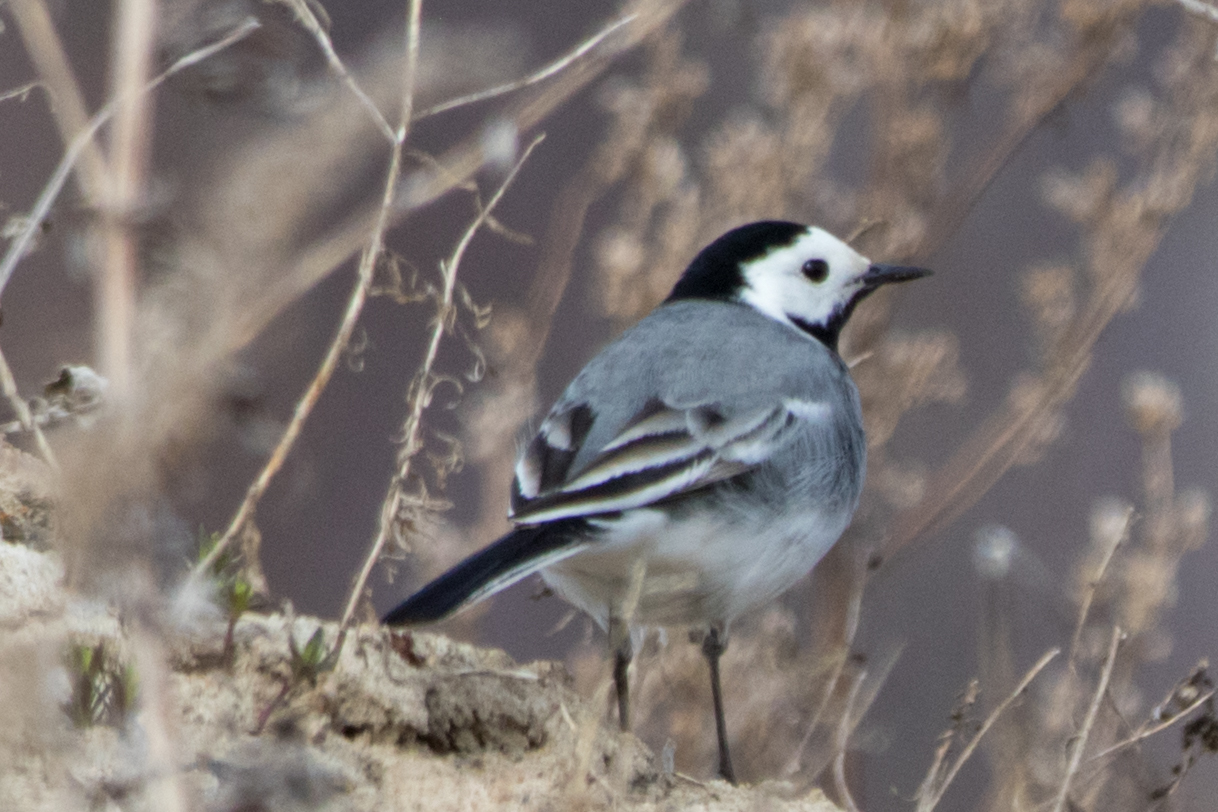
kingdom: Animalia
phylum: Chordata
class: Aves
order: Passeriformes
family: Motacillidae
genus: Motacilla
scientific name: Motacilla alba
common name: White wagtail
